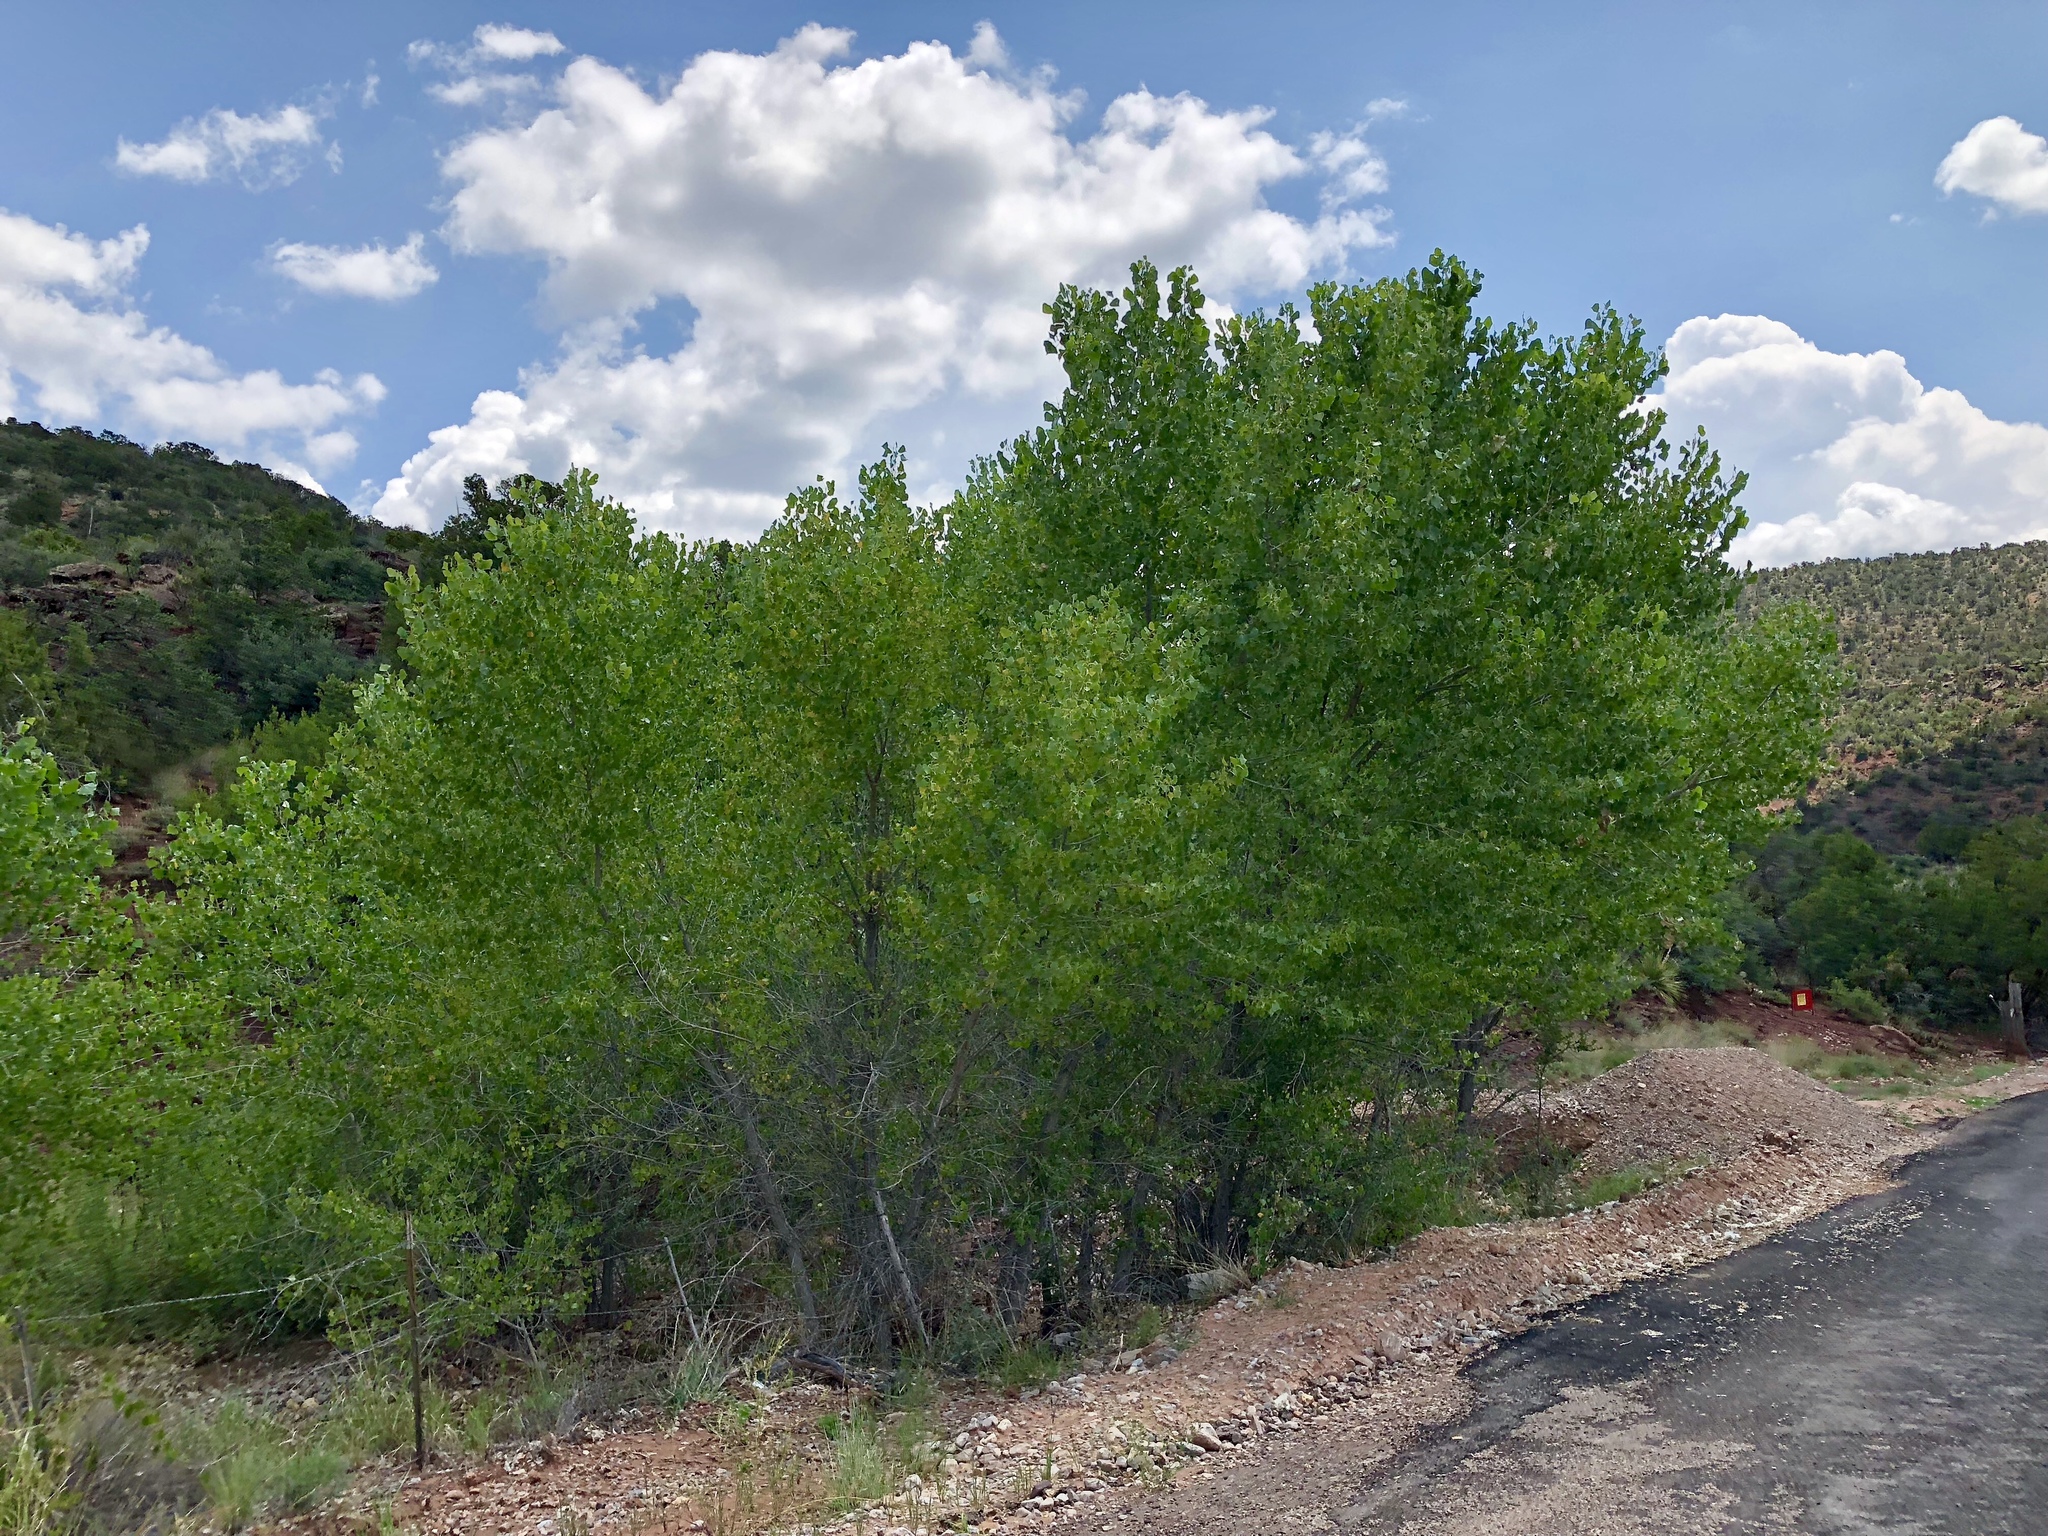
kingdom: Plantae
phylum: Tracheophyta
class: Magnoliopsida
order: Malpighiales
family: Salicaceae
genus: Populus
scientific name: Populus fremontii
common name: Fremont's cottonwood
